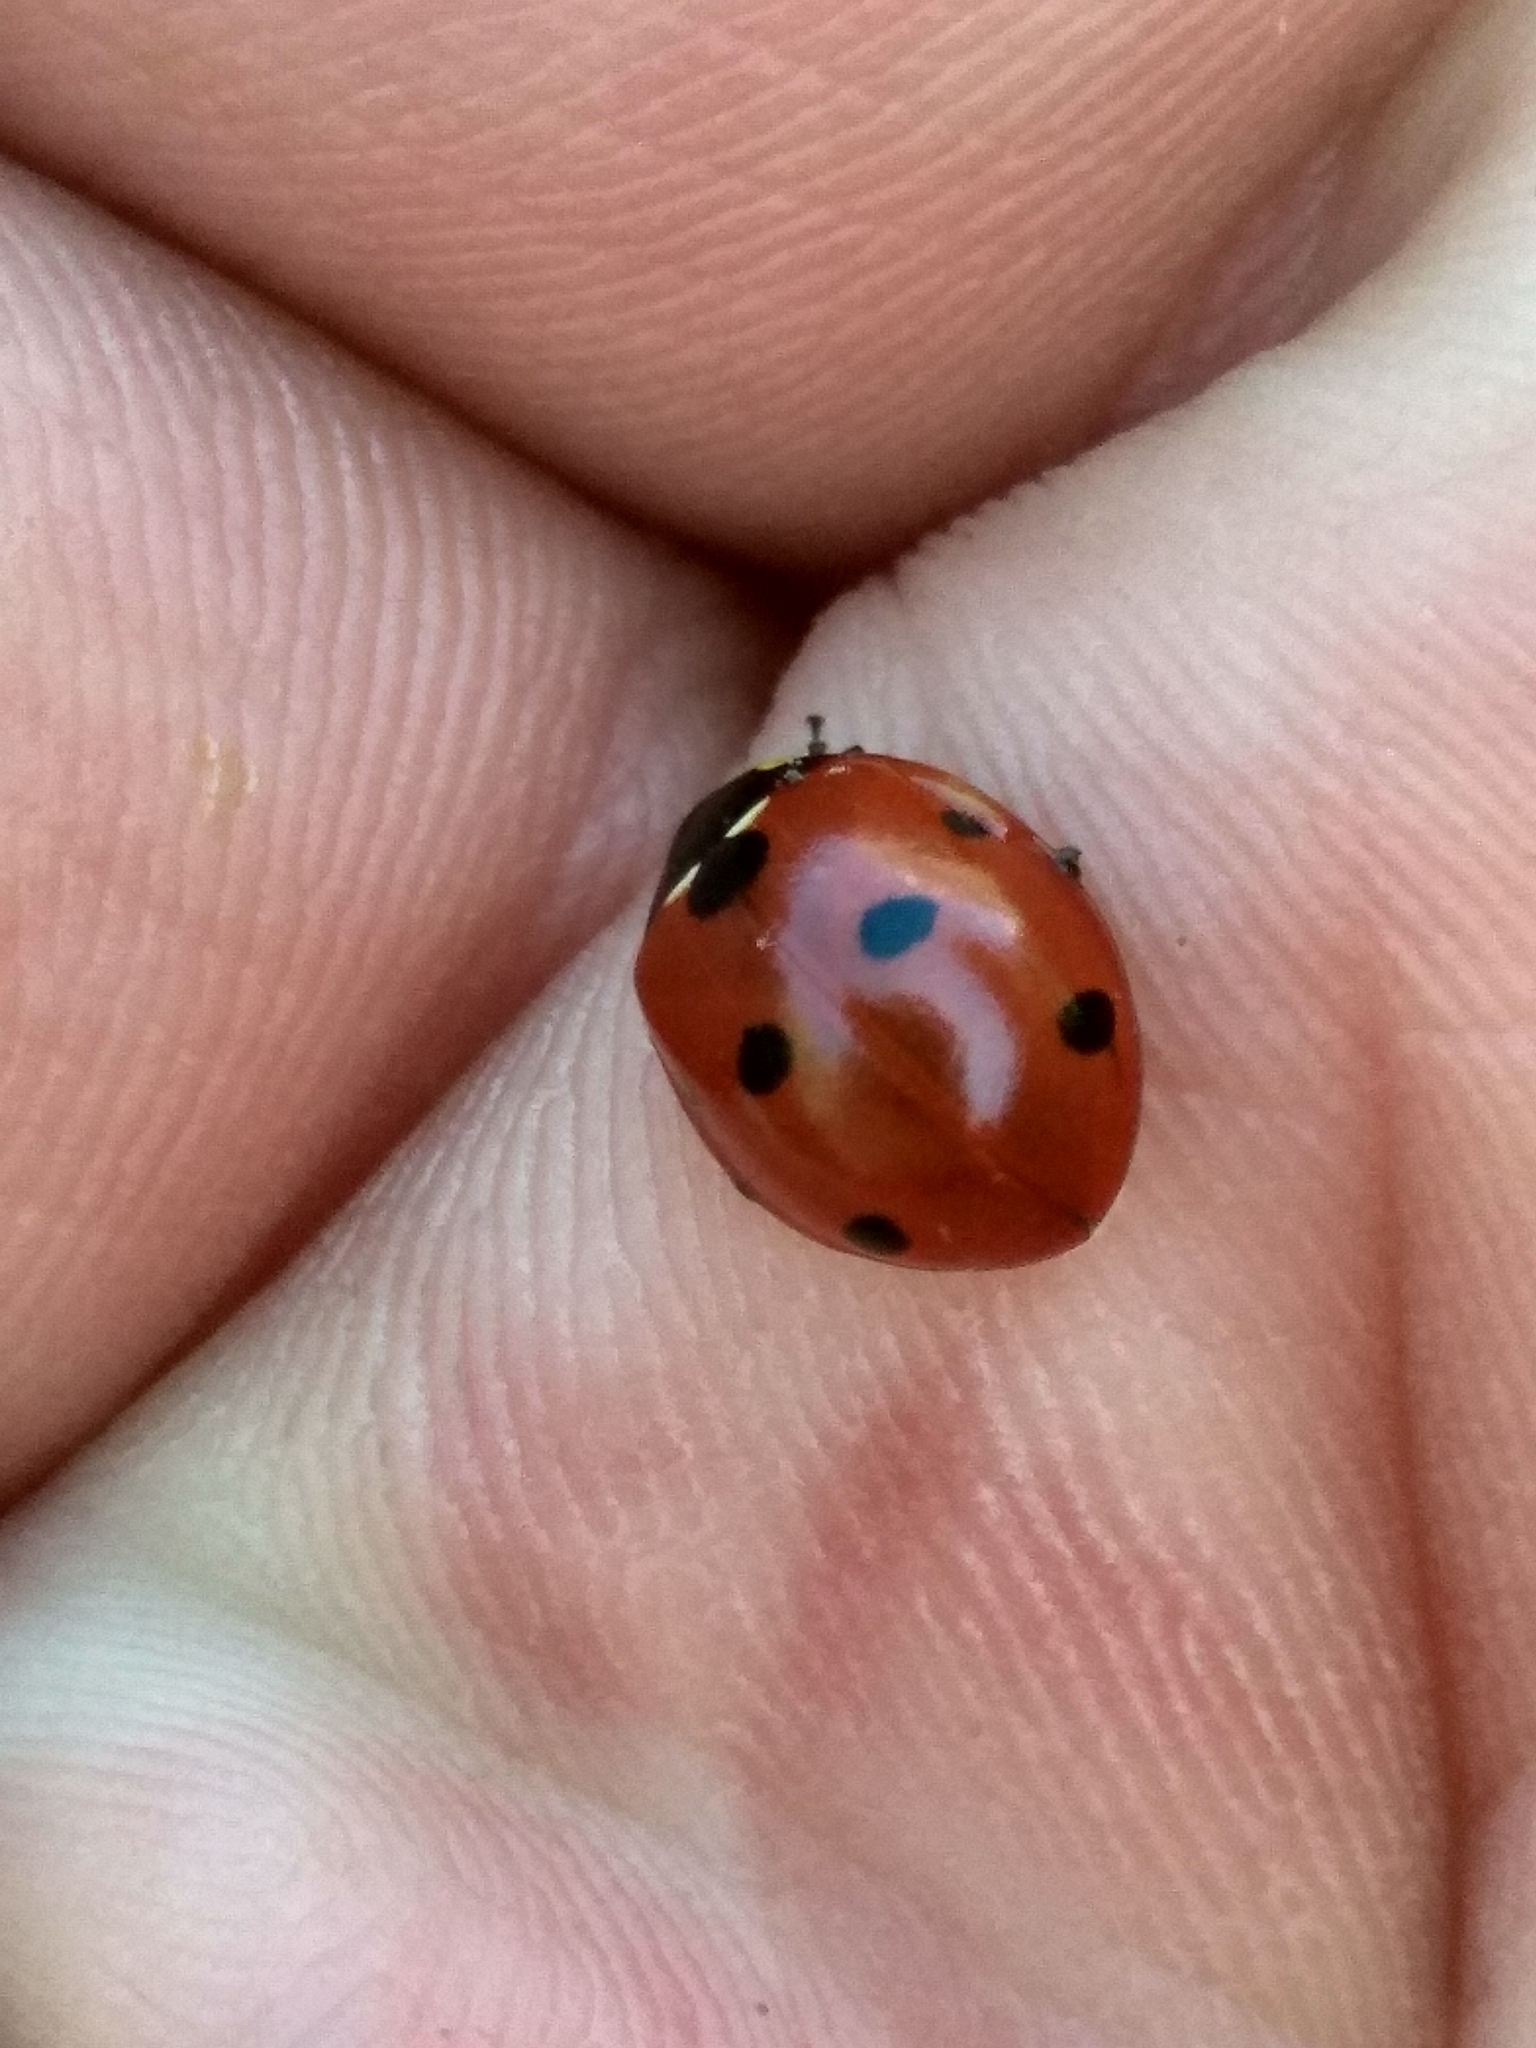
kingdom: Animalia
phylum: Arthropoda
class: Insecta
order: Coleoptera
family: Coccinellidae
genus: Coccinella
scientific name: Coccinella septempunctata
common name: Sevenspotted lady beetle
